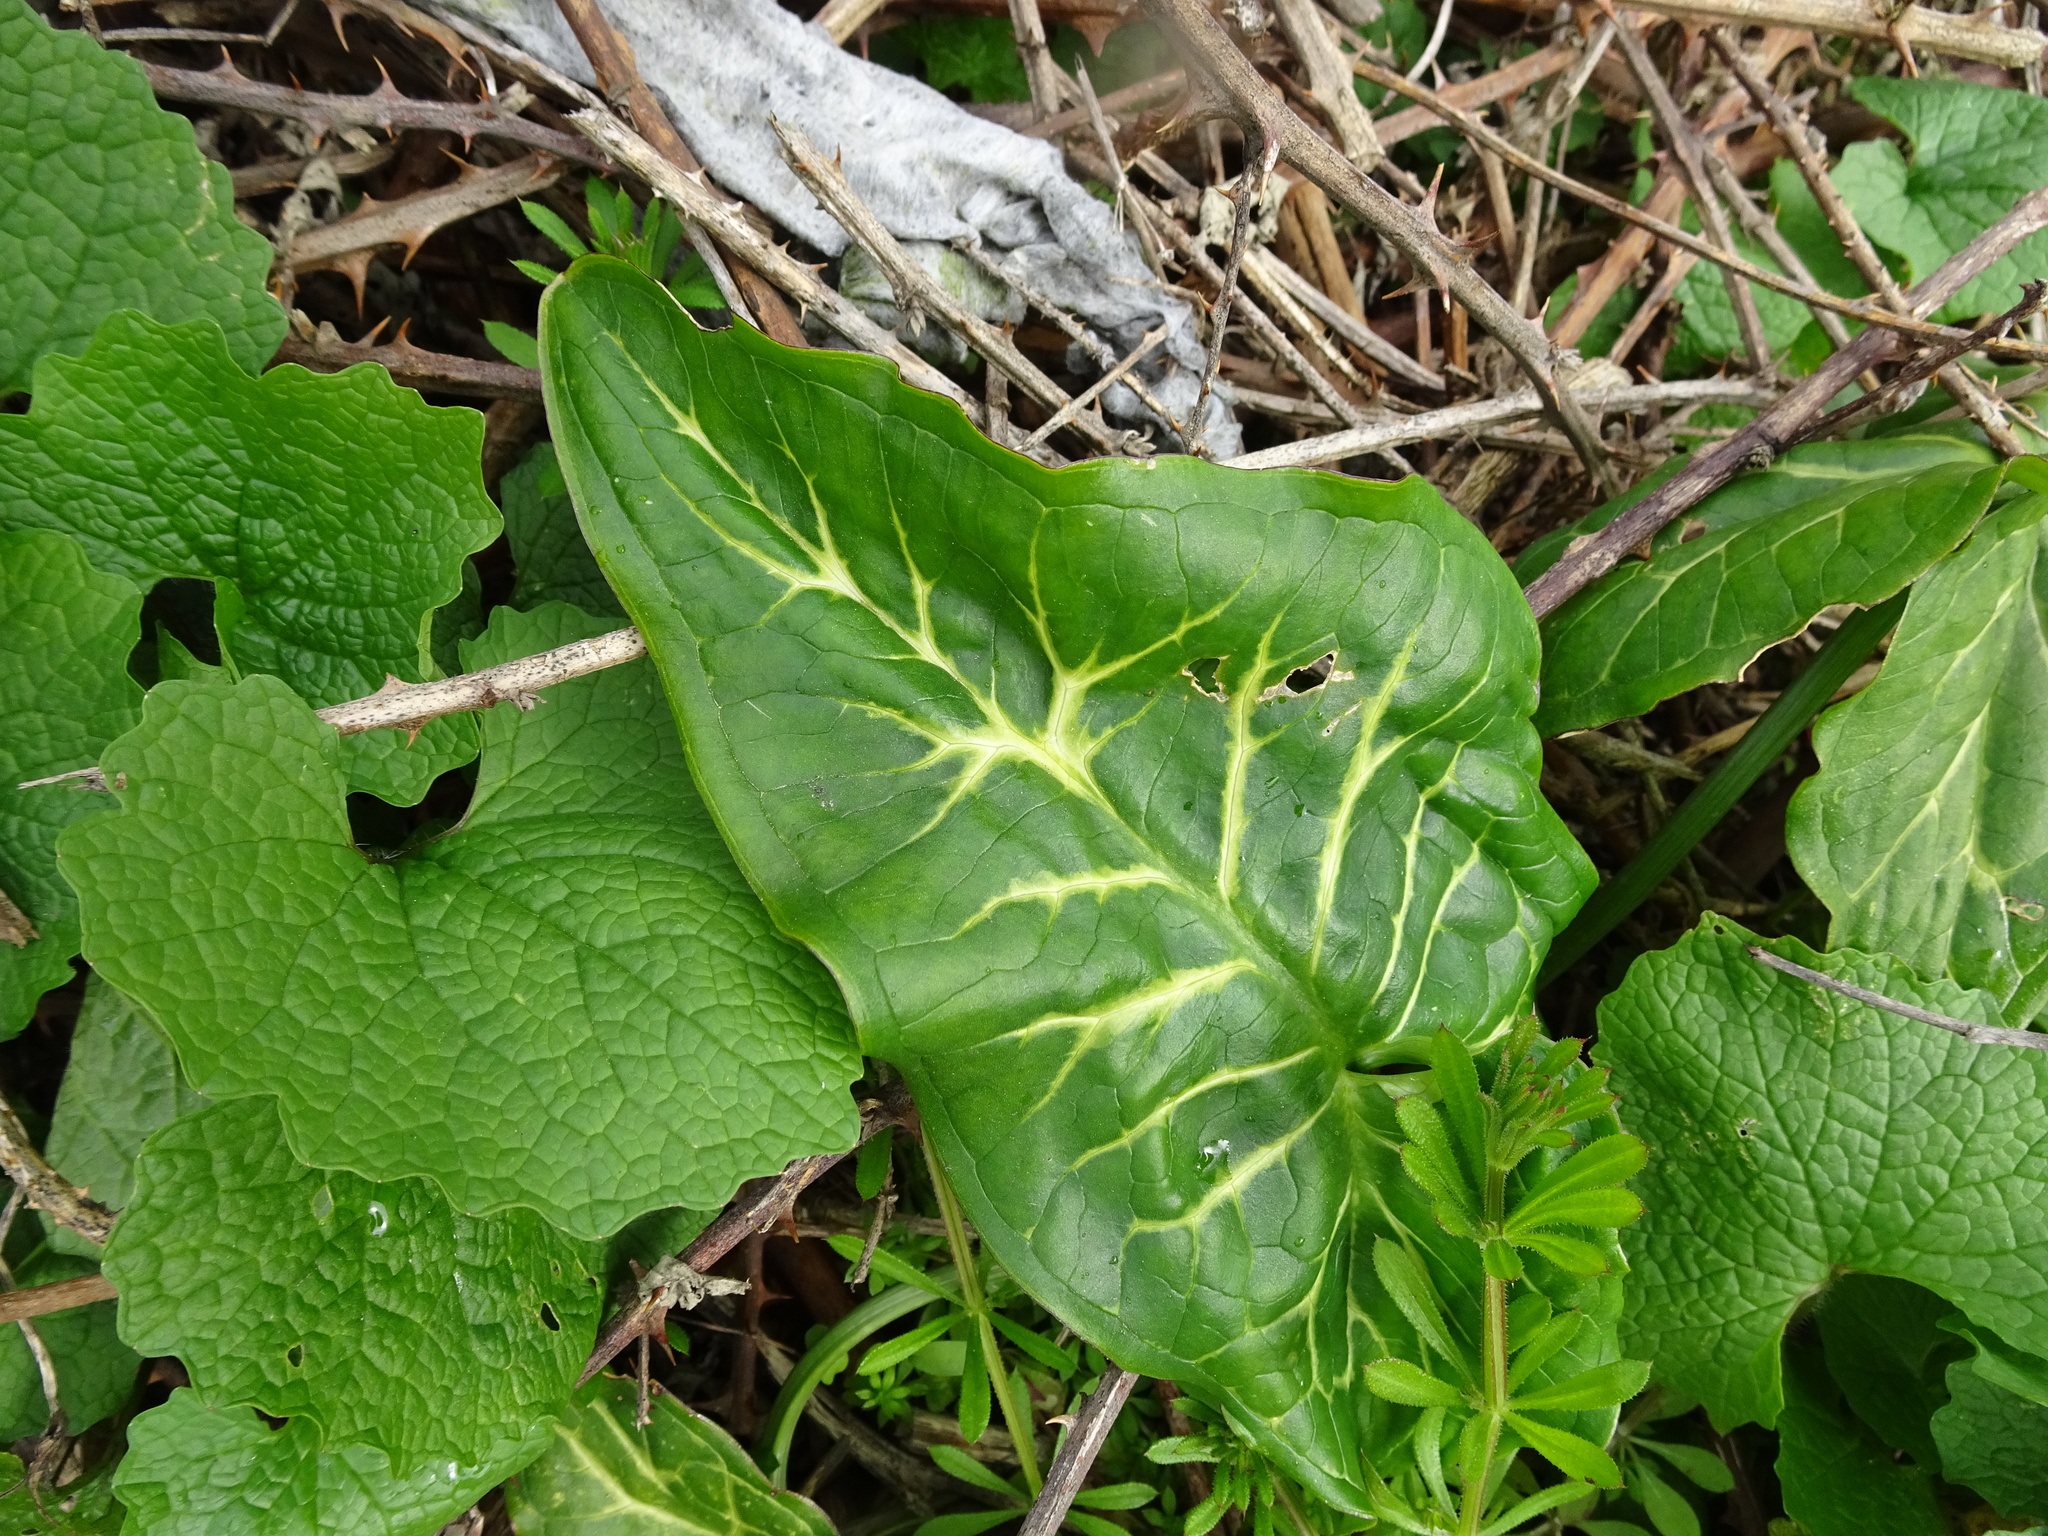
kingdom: Plantae
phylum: Tracheophyta
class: Liliopsida
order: Alismatales
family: Araceae
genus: Arum
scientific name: Arum italicum
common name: Italian lords-and-ladies
